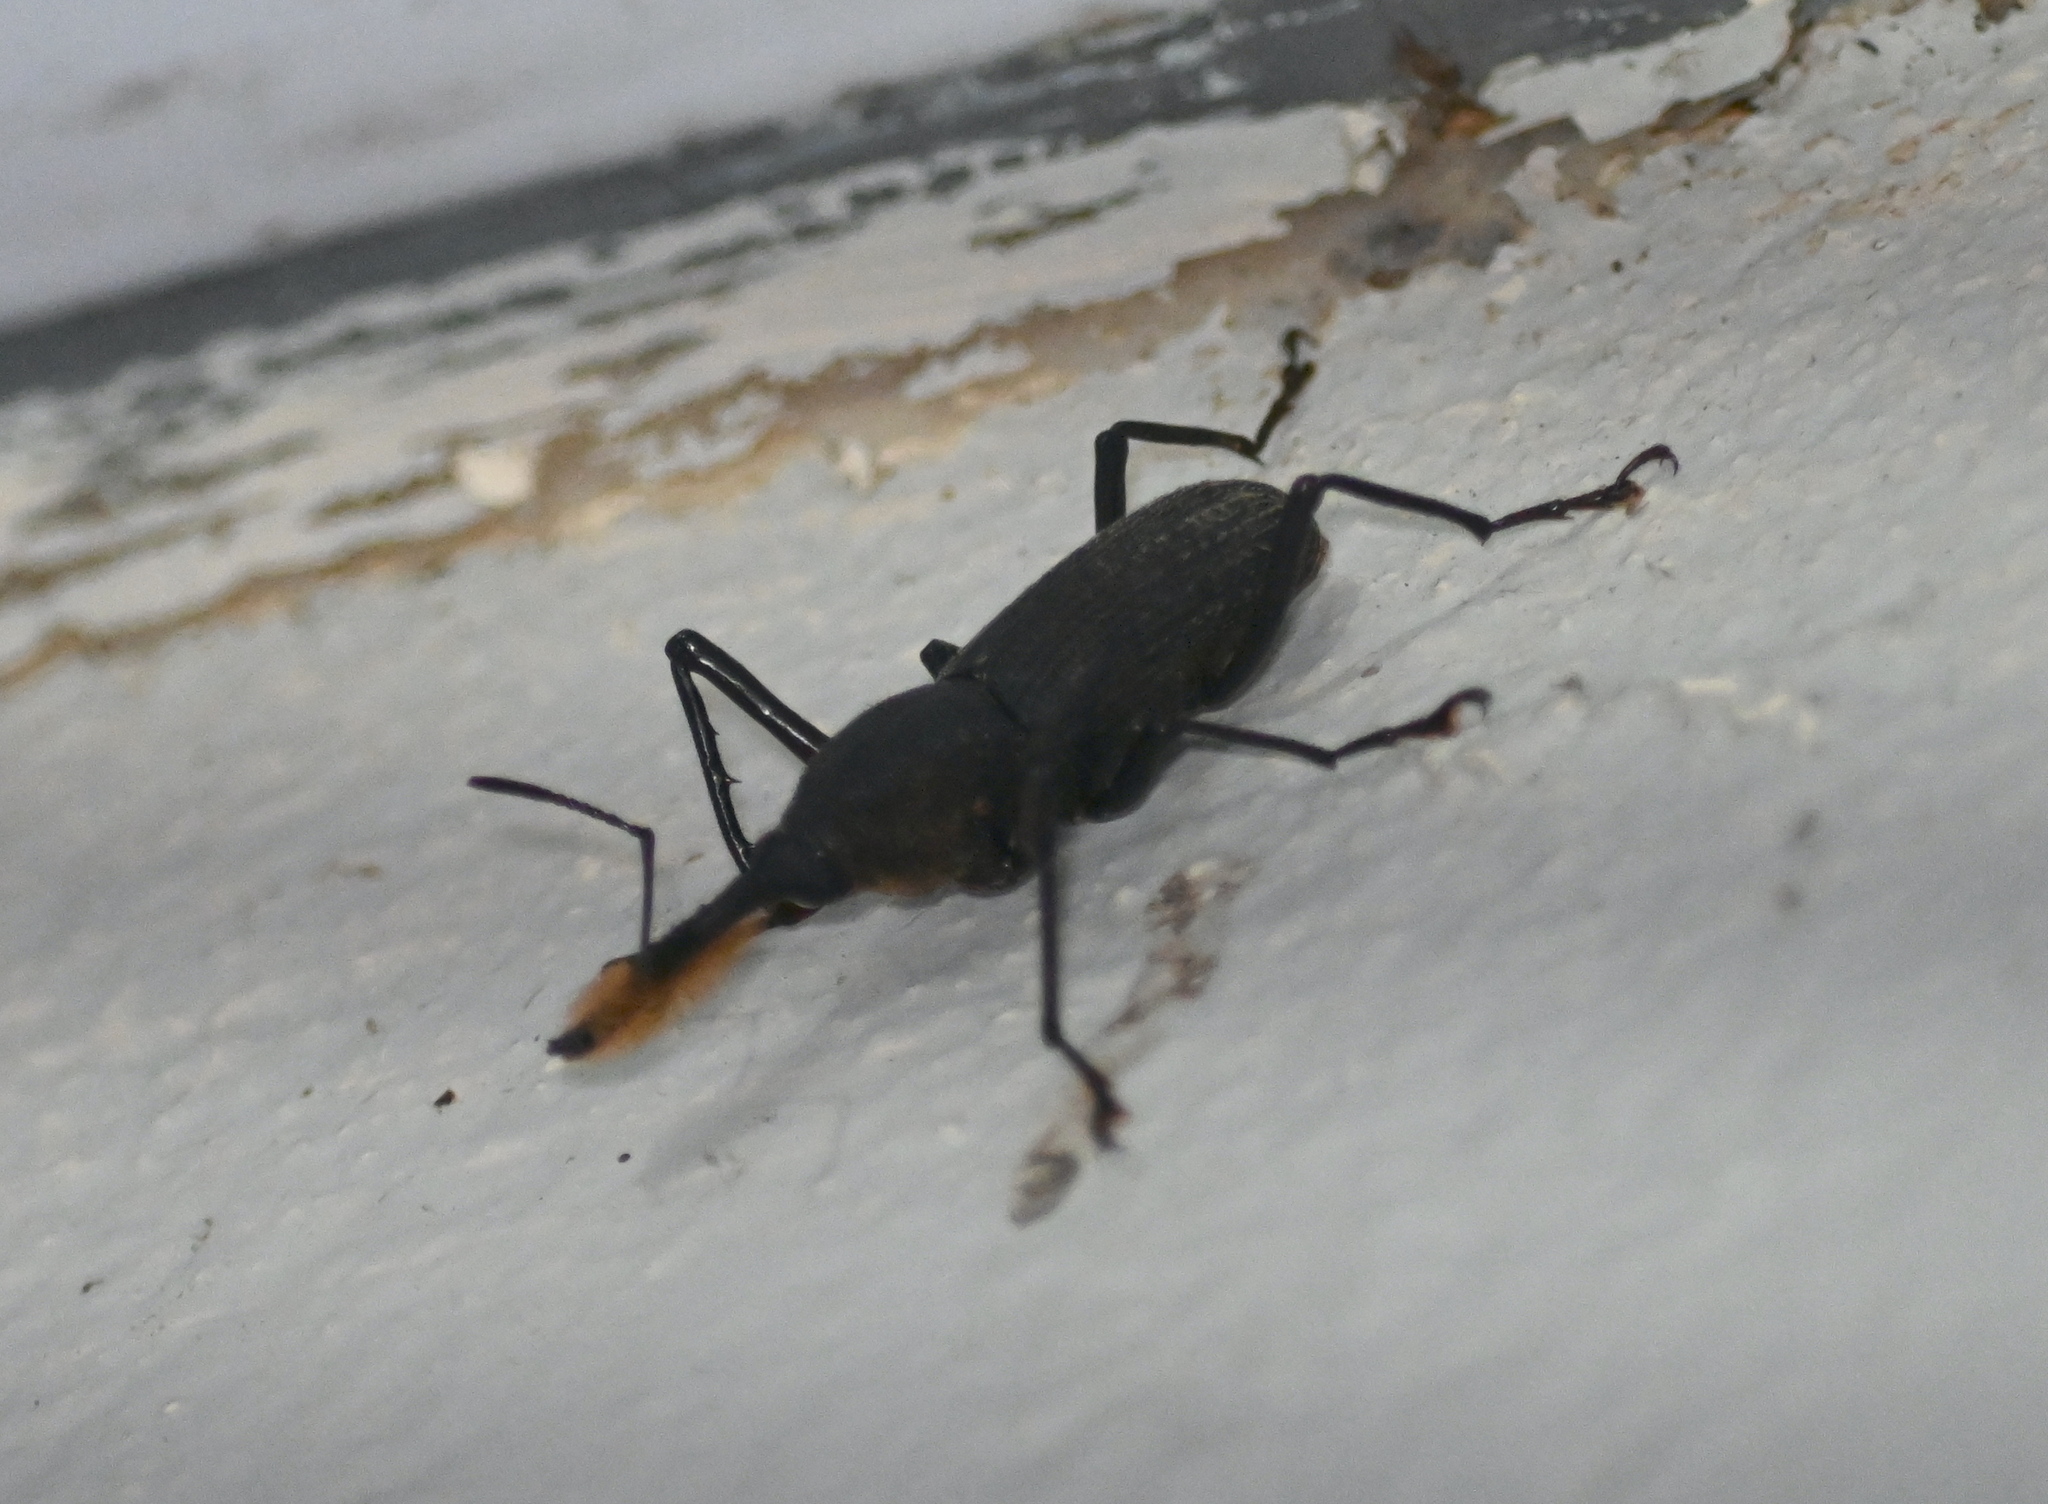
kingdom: Animalia
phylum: Arthropoda
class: Insecta
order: Coleoptera
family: Dryophthoridae
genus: Rhinostomus
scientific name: Rhinostomus barbirostris
